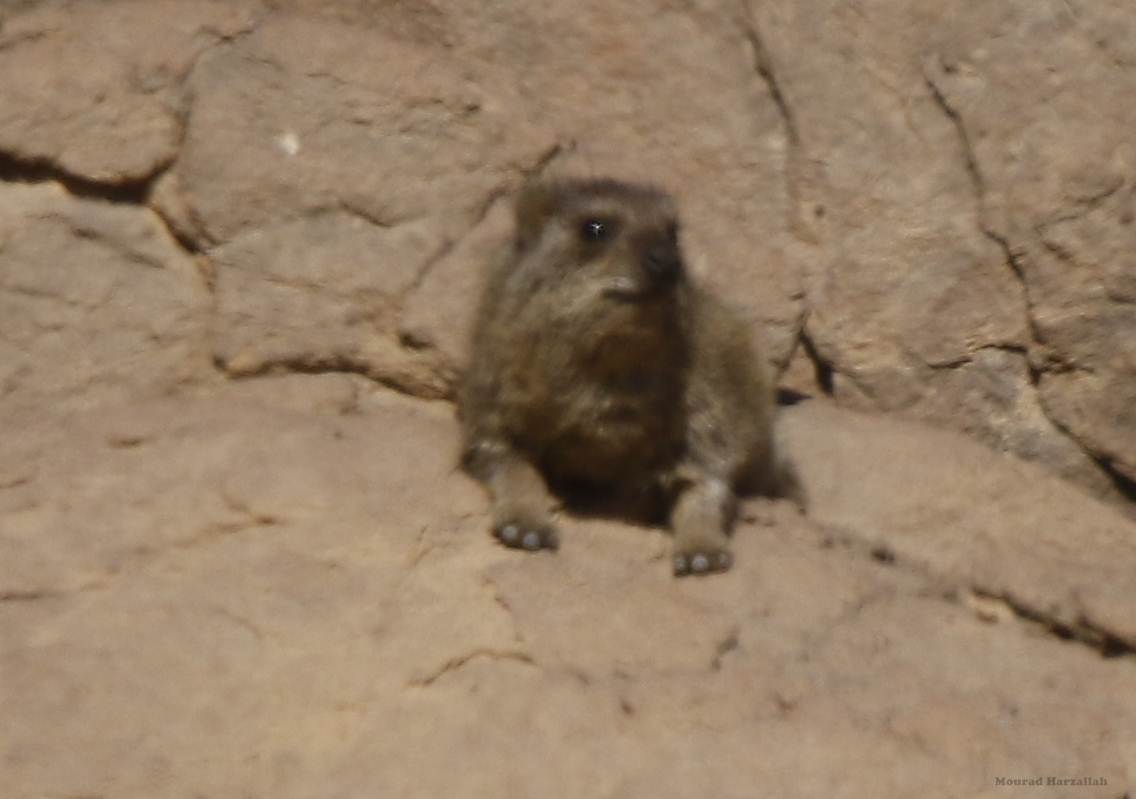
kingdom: Animalia
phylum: Chordata
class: Mammalia
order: Hyracoidea
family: Procaviidae
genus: Procavia
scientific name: Procavia capensis
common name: Rock hyrax
